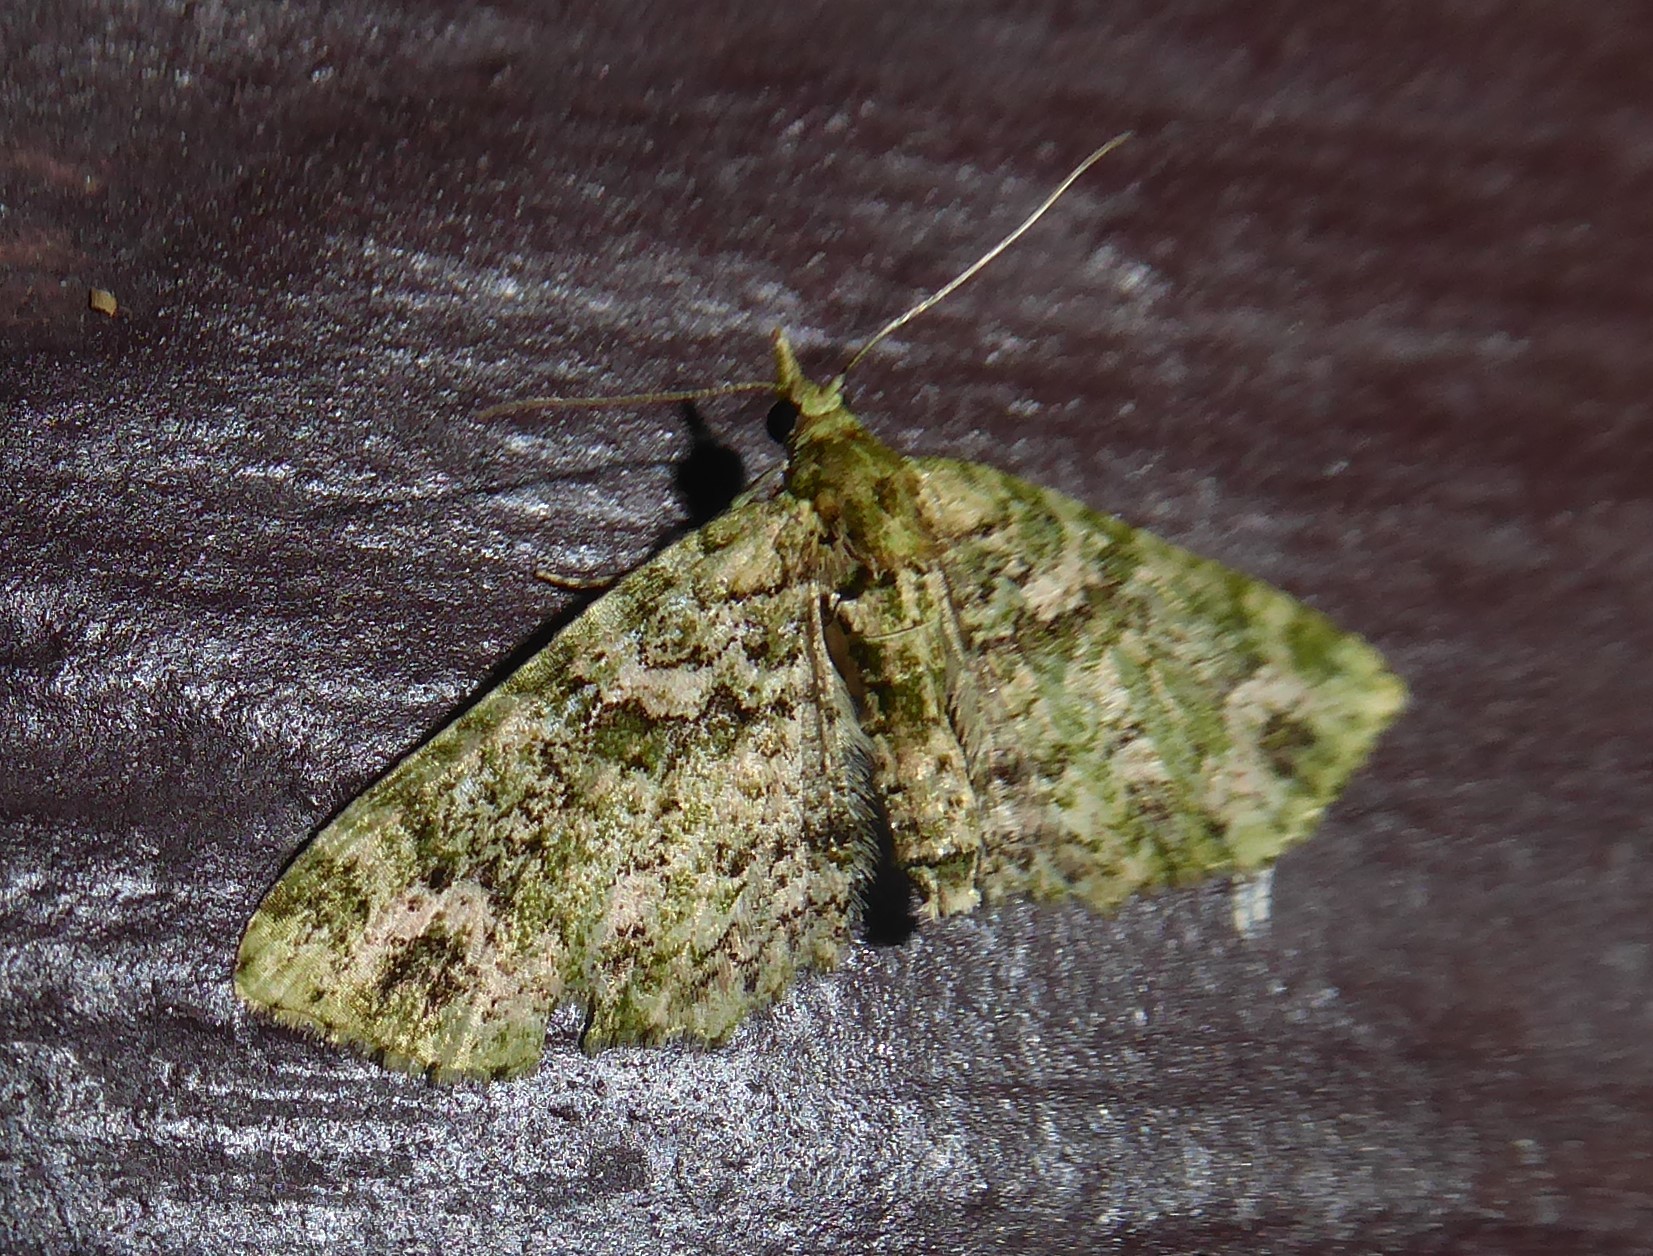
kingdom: Animalia
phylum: Arthropoda
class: Insecta
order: Lepidoptera
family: Geometridae
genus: Pasiphila
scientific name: Pasiphila muscosata
